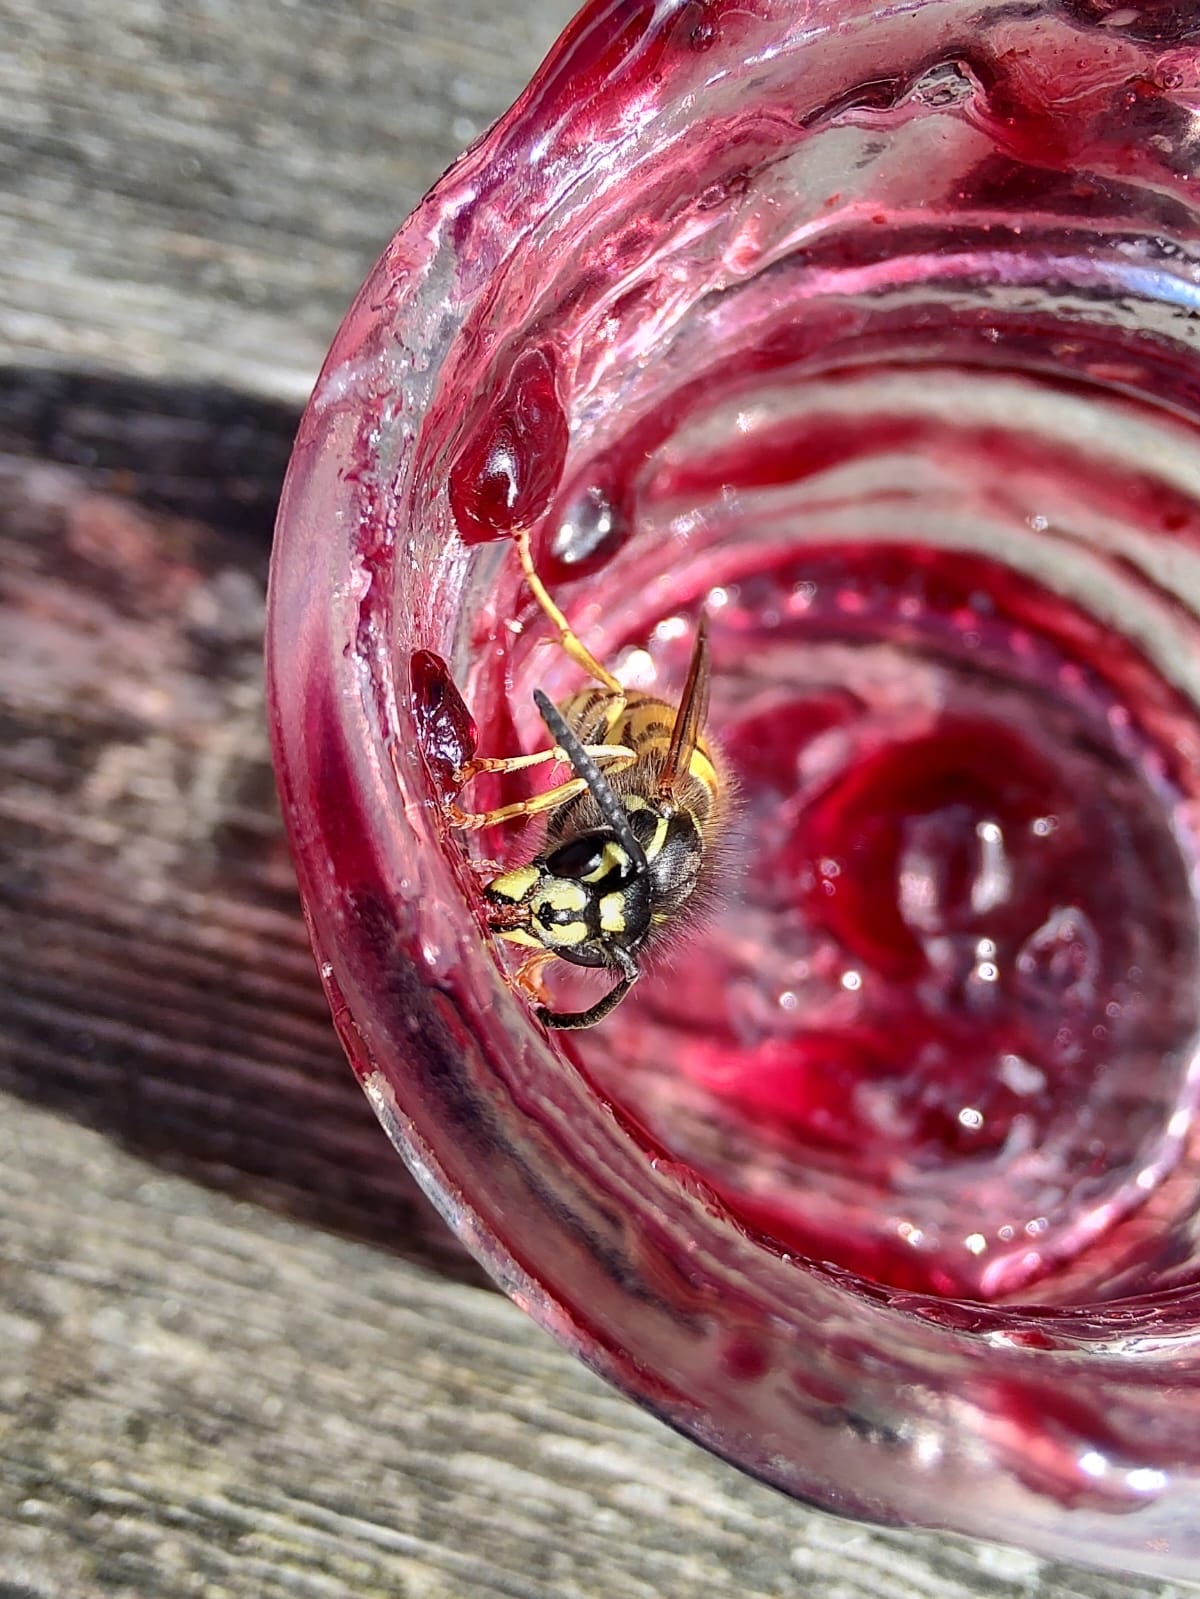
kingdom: Animalia
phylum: Arthropoda
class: Insecta
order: Hymenoptera
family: Vespidae
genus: Vespula
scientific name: Vespula vulgaris
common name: Common wasp
